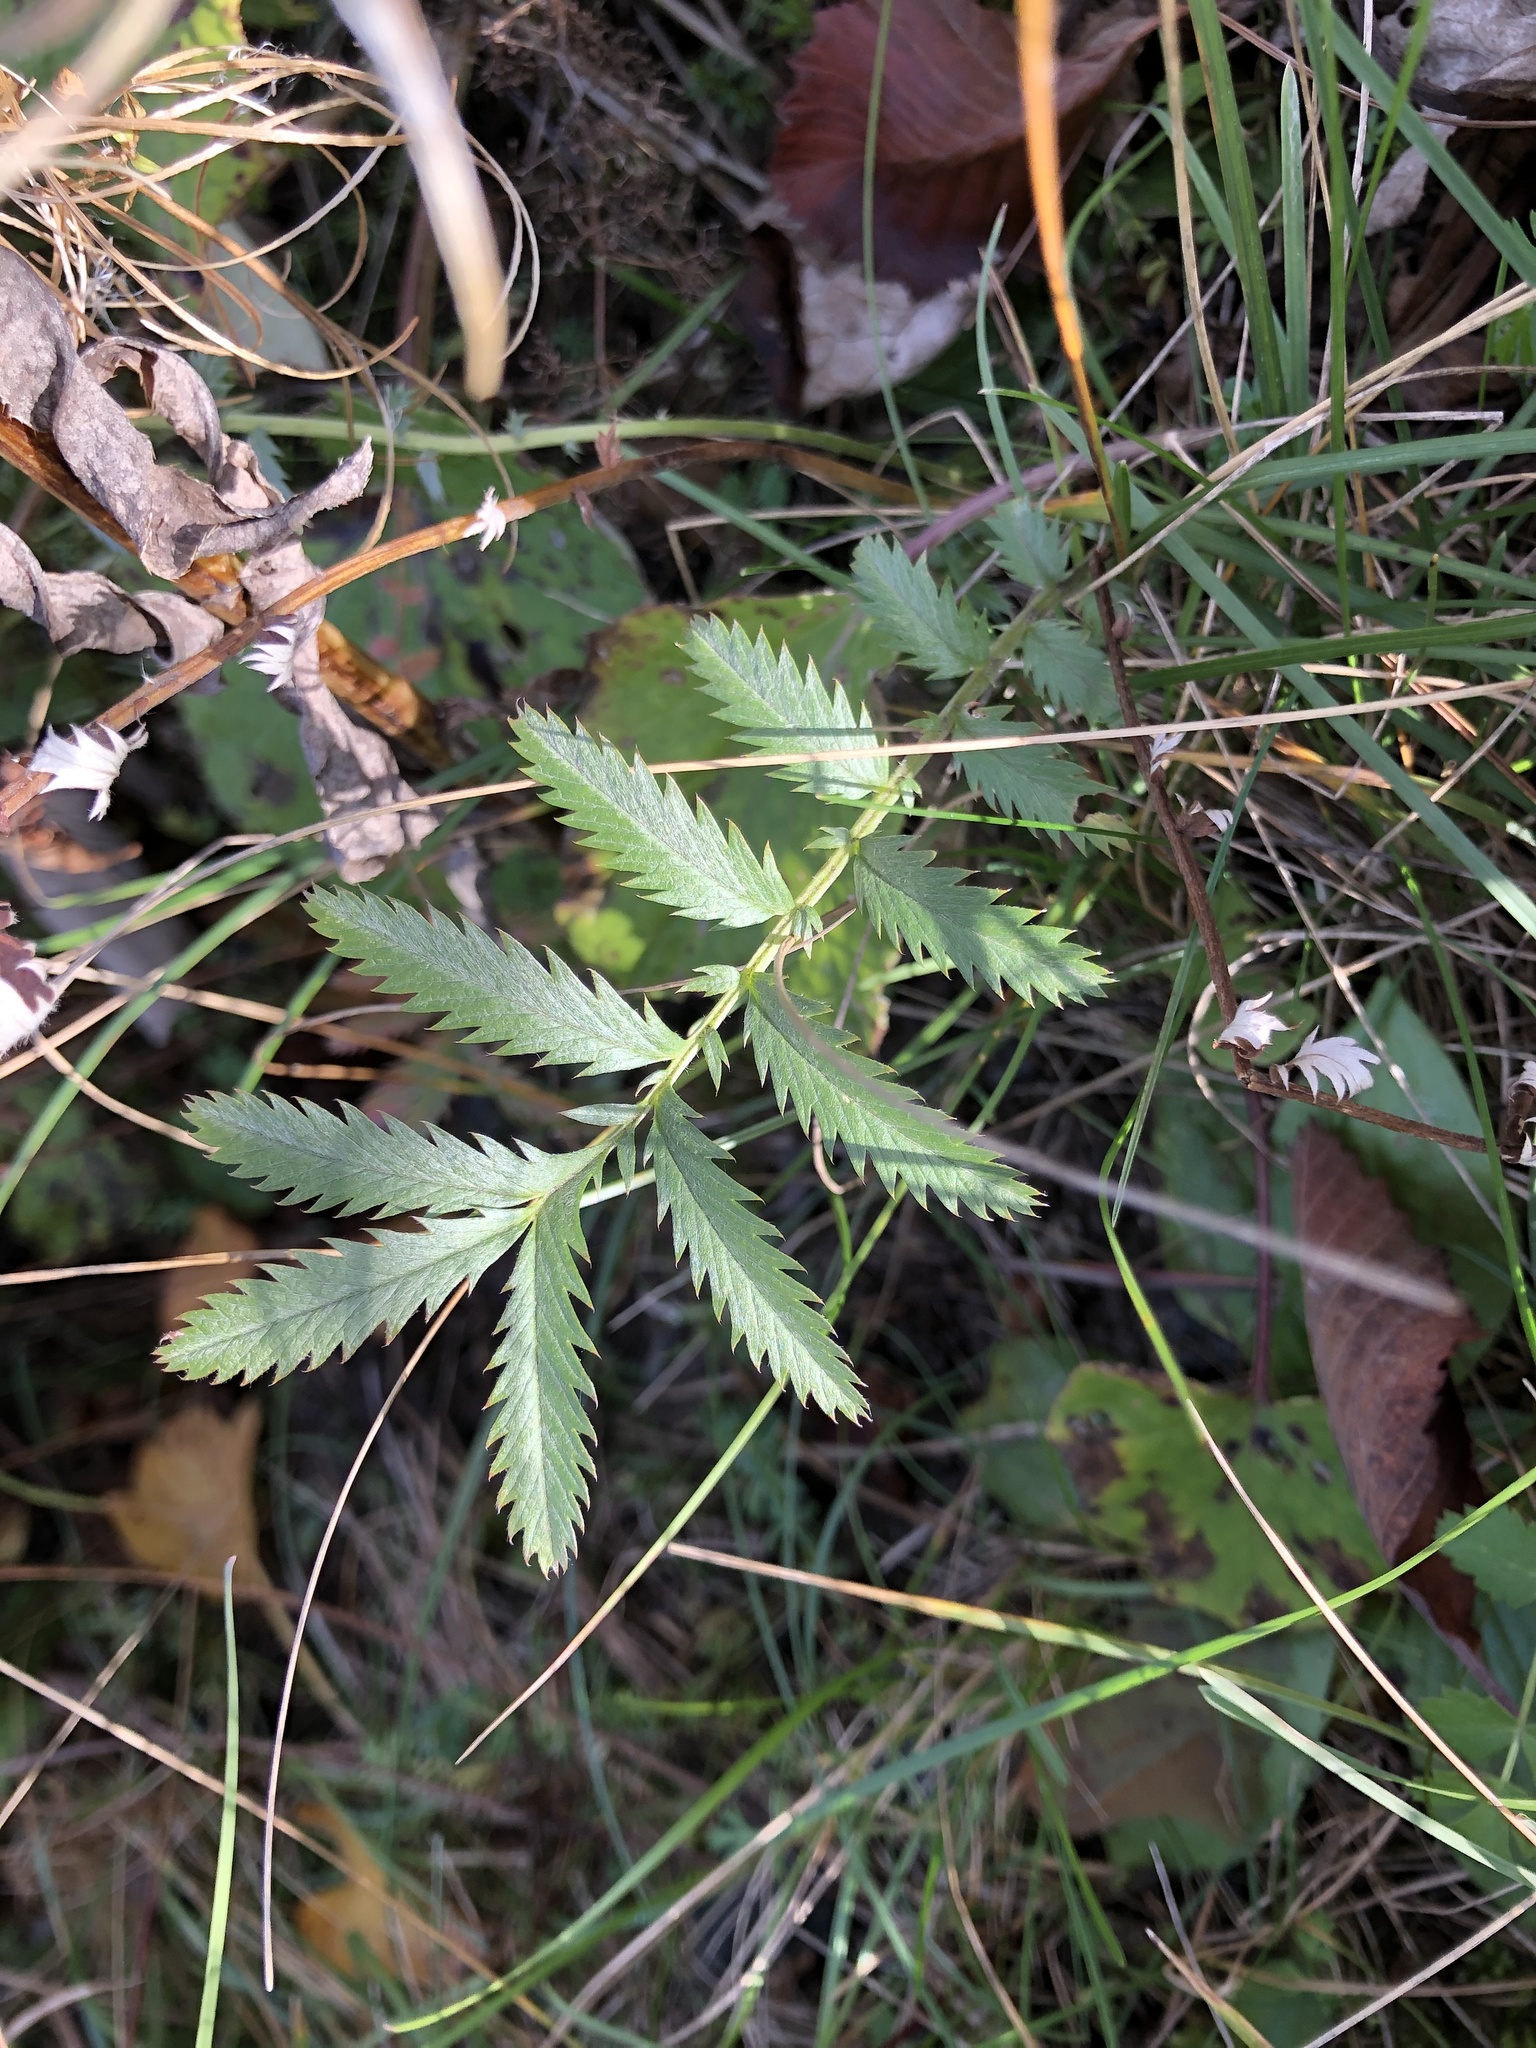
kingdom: Plantae
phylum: Tracheophyta
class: Magnoliopsida
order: Rosales
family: Rosaceae
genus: Argentina
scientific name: Argentina anserina
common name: Common silverweed
